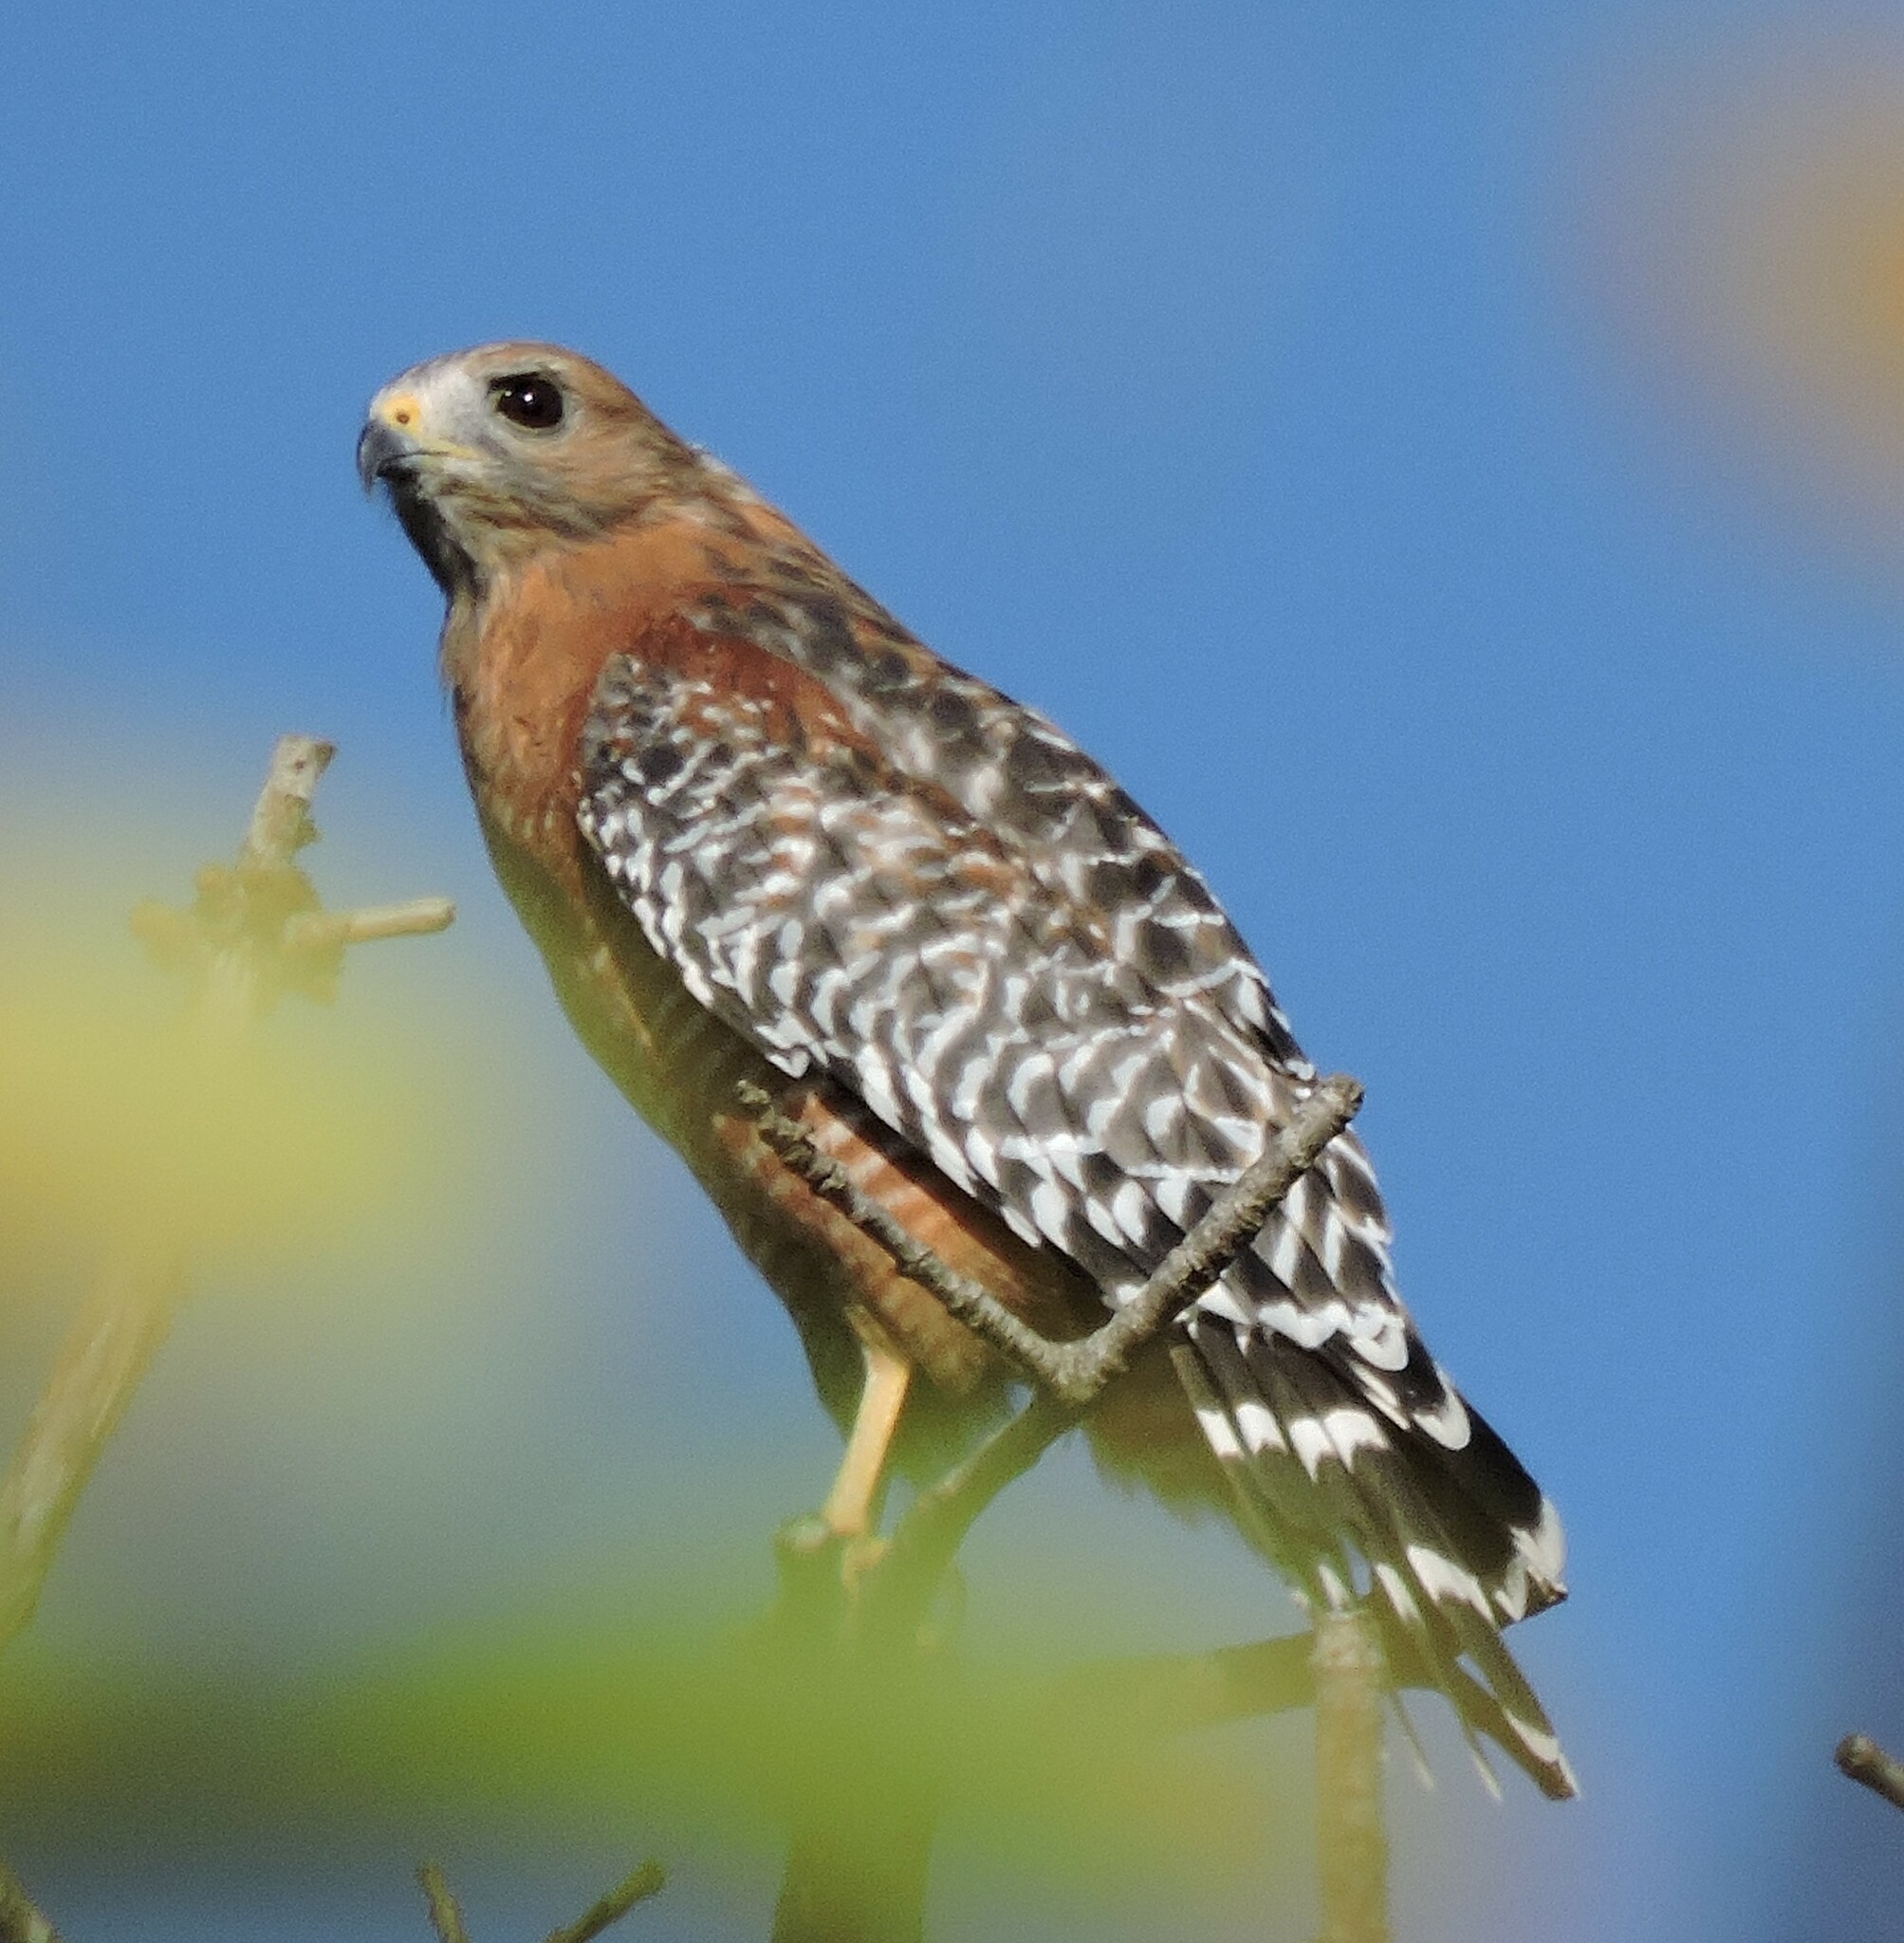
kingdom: Animalia
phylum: Chordata
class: Aves
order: Accipitriformes
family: Accipitridae
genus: Buteo
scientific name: Buteo lineatus
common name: Red-shouldered hawk
